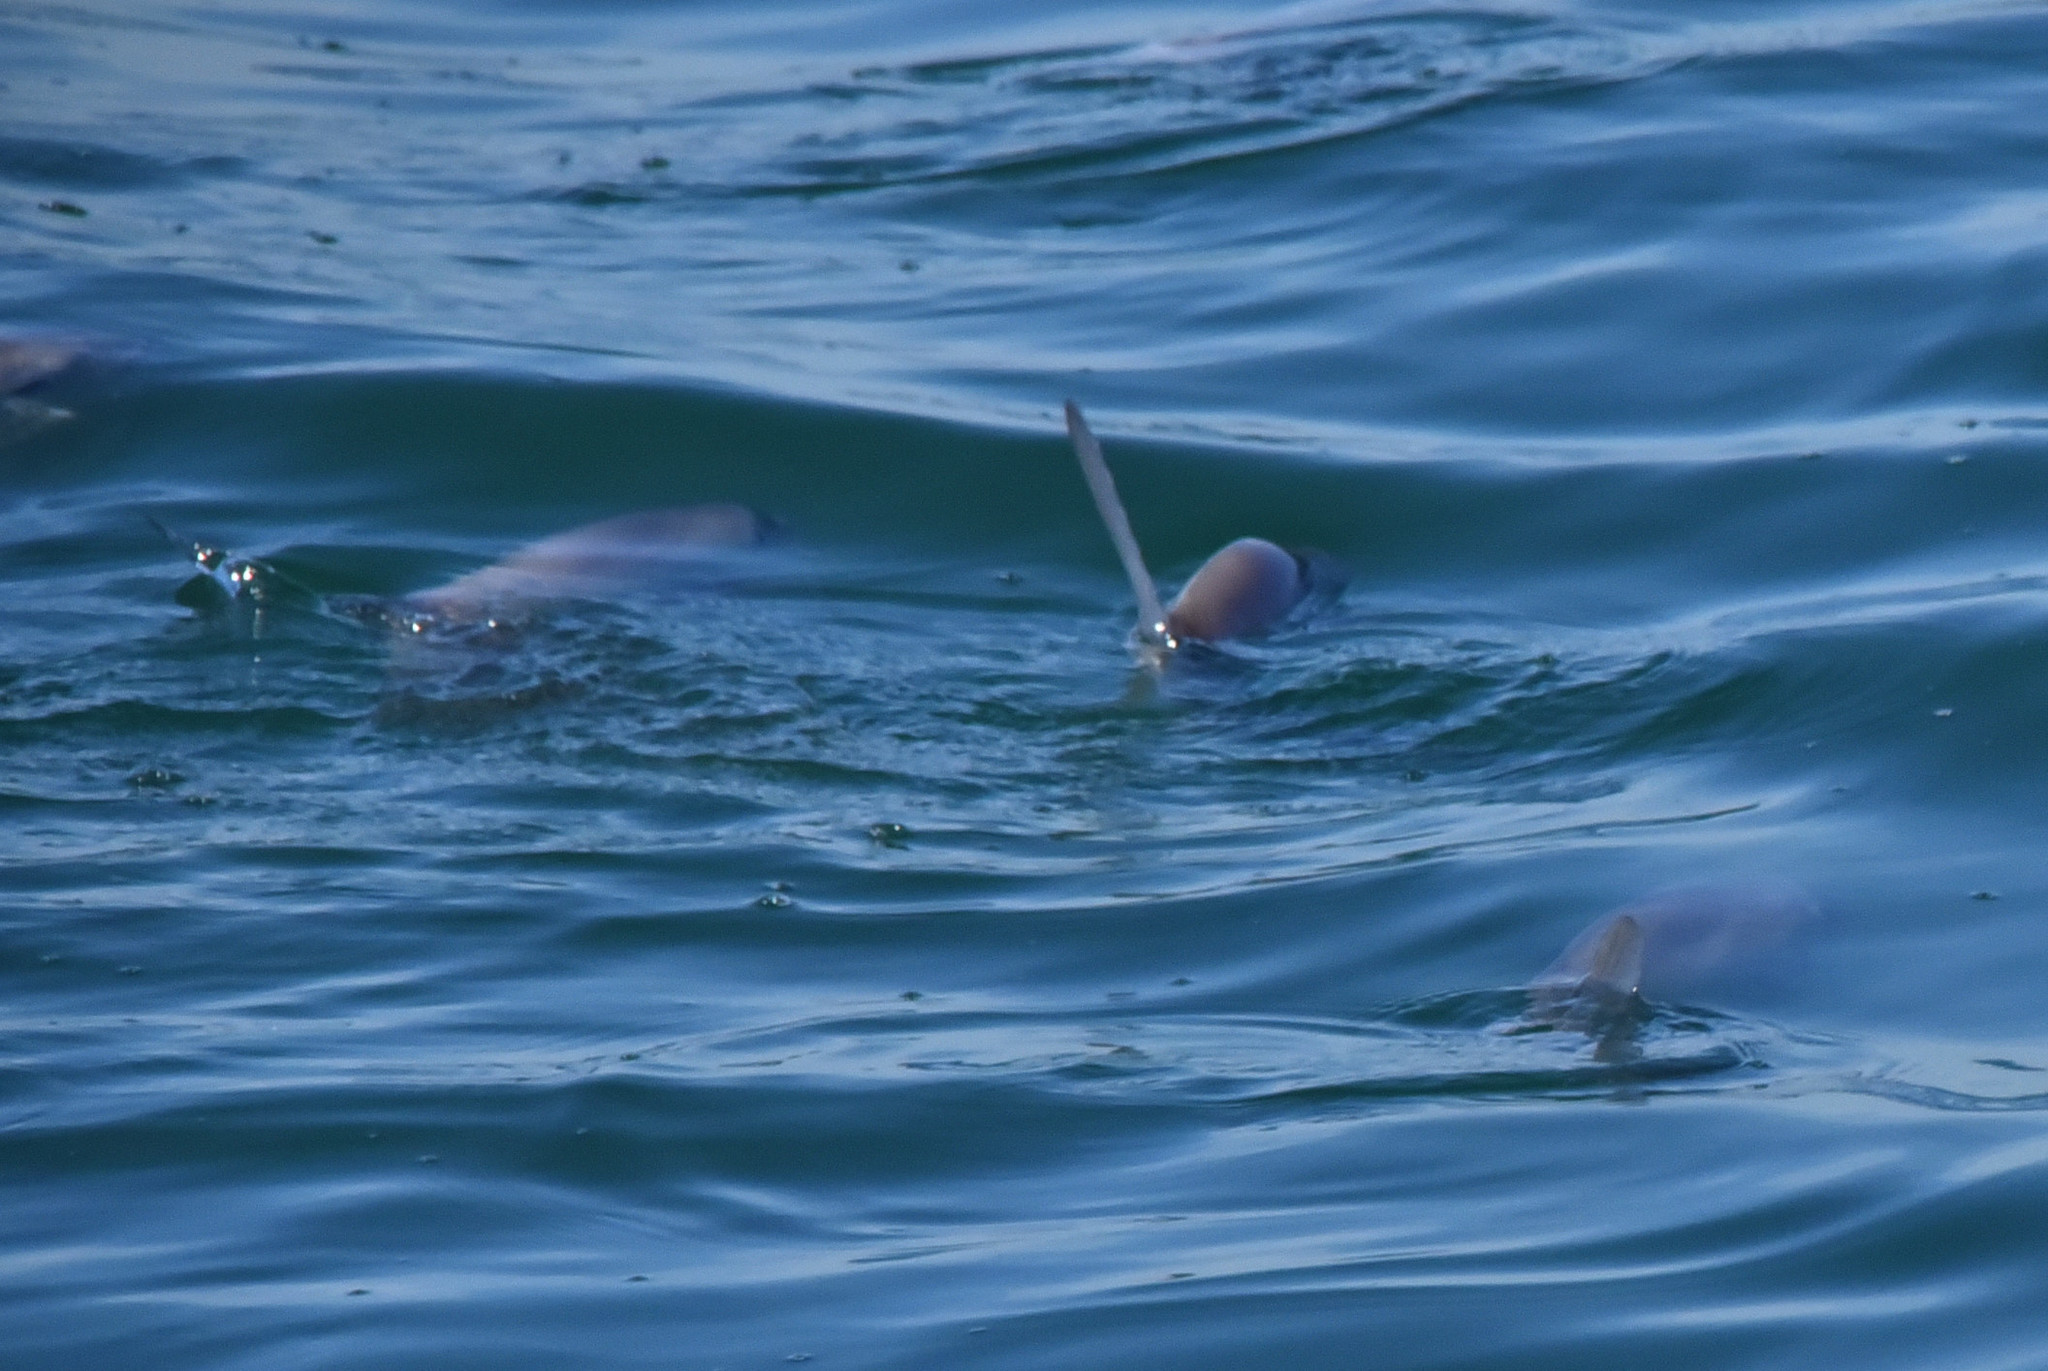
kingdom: Animalia
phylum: Chordata
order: Tetraodontiformes
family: Molidae
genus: Mola
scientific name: Mola mola
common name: Ocean sunfish
